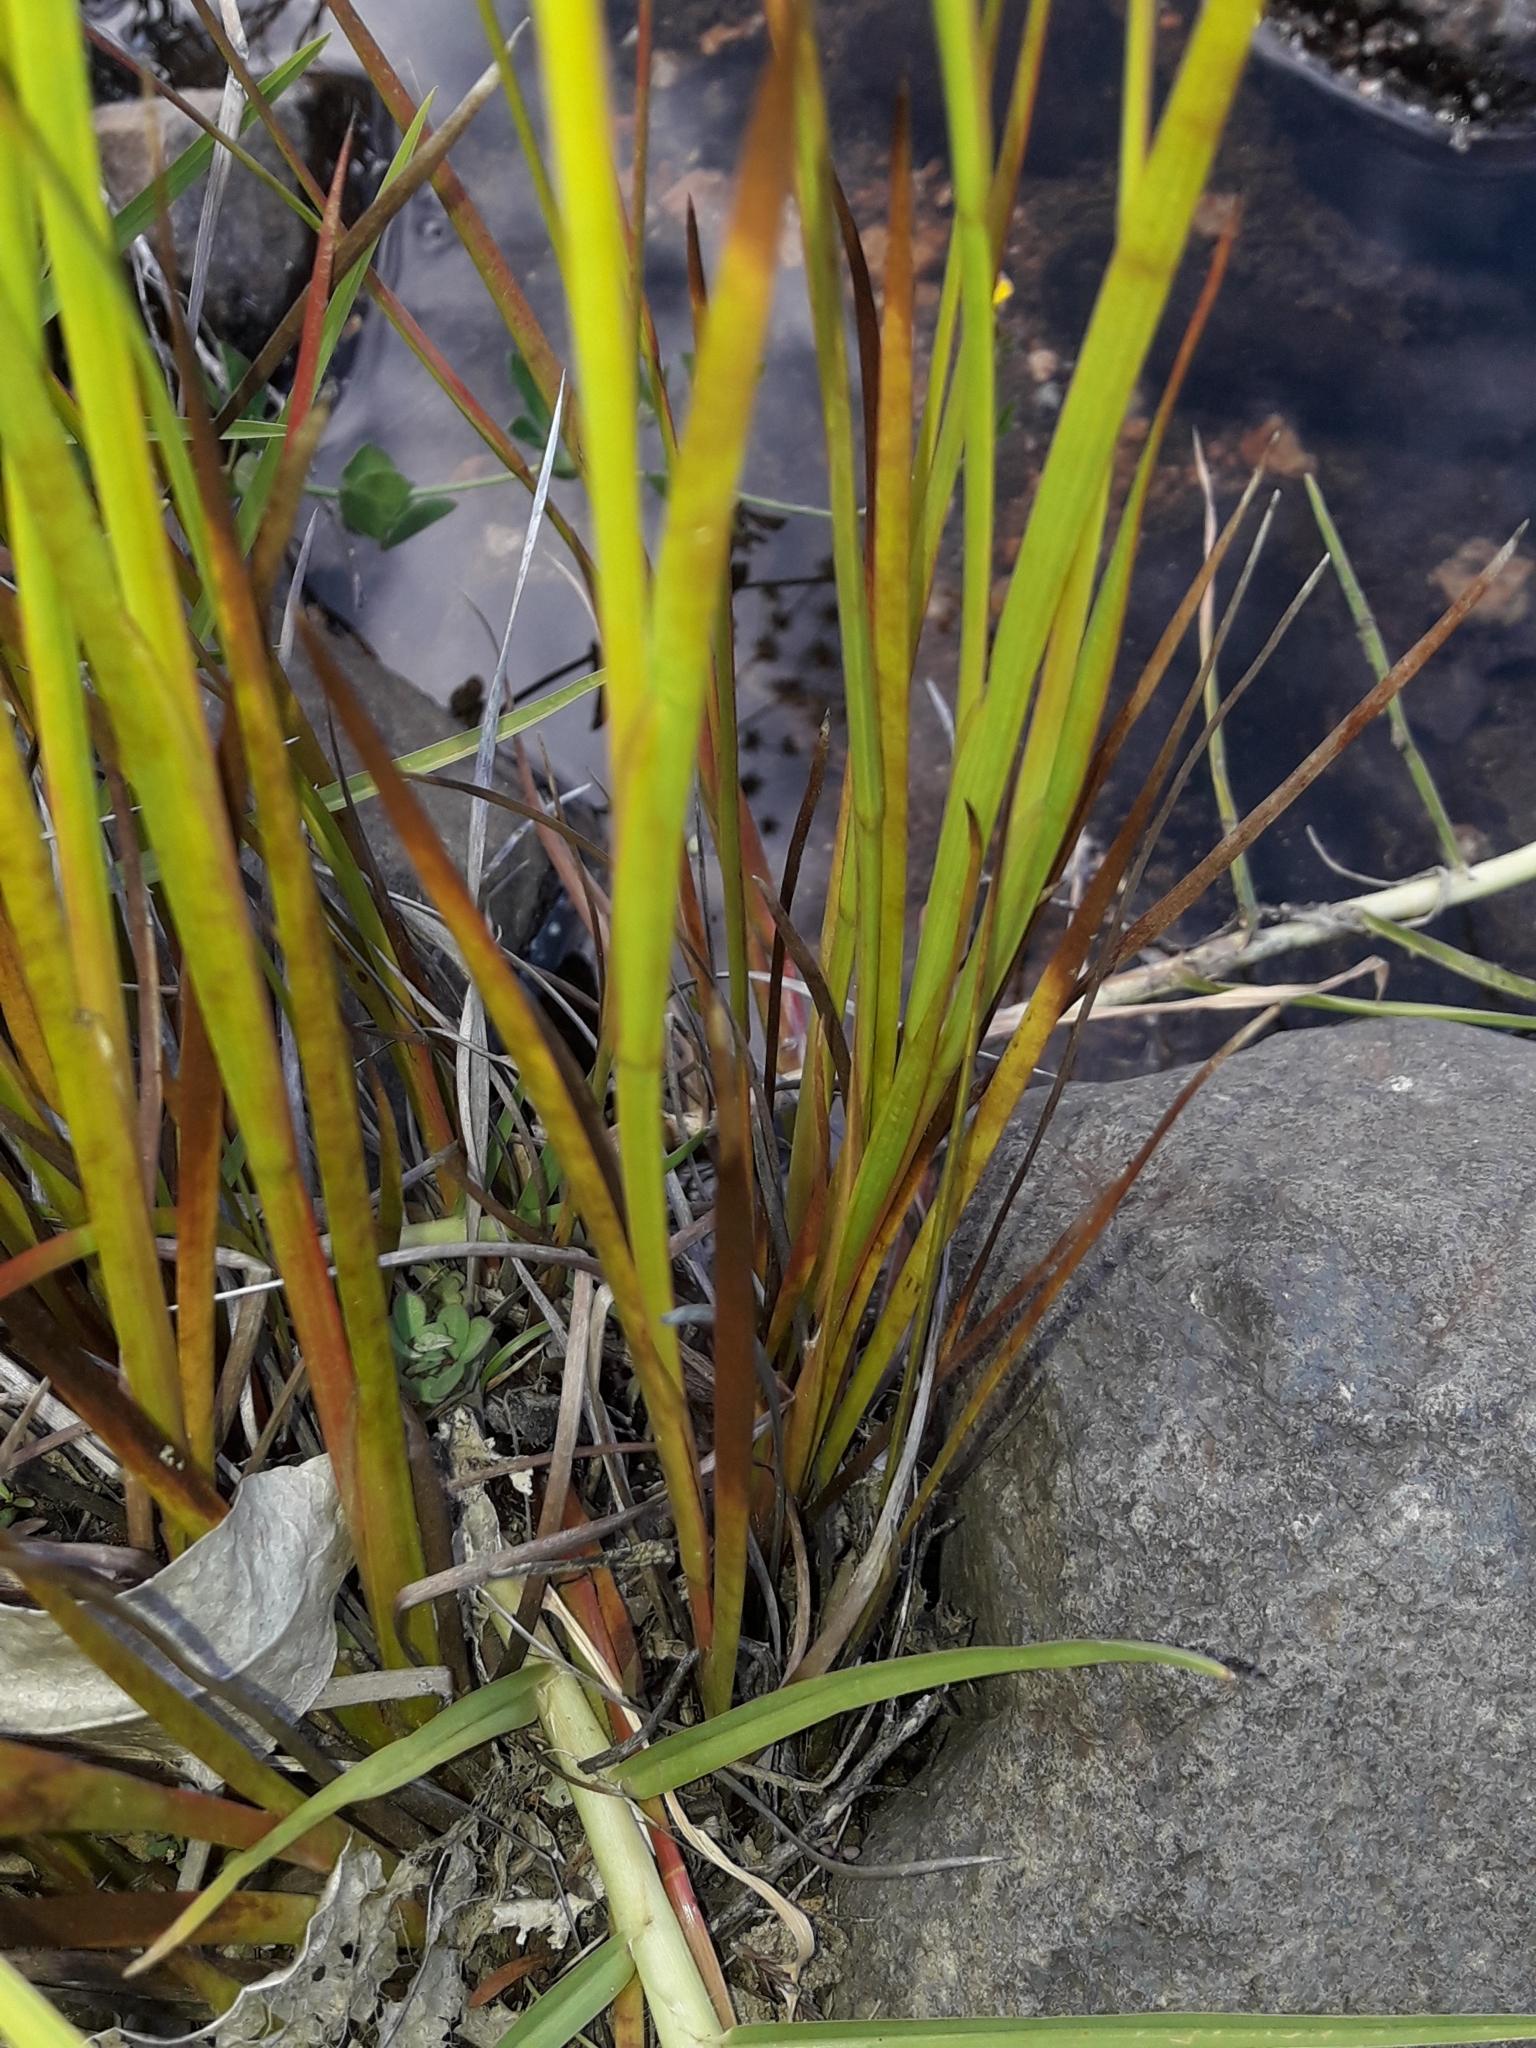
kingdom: Plantae
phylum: Tracheophyta
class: Liliopsida
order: Poales
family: Juncaceae
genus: Juncus
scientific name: Juncus prismatocarpus
